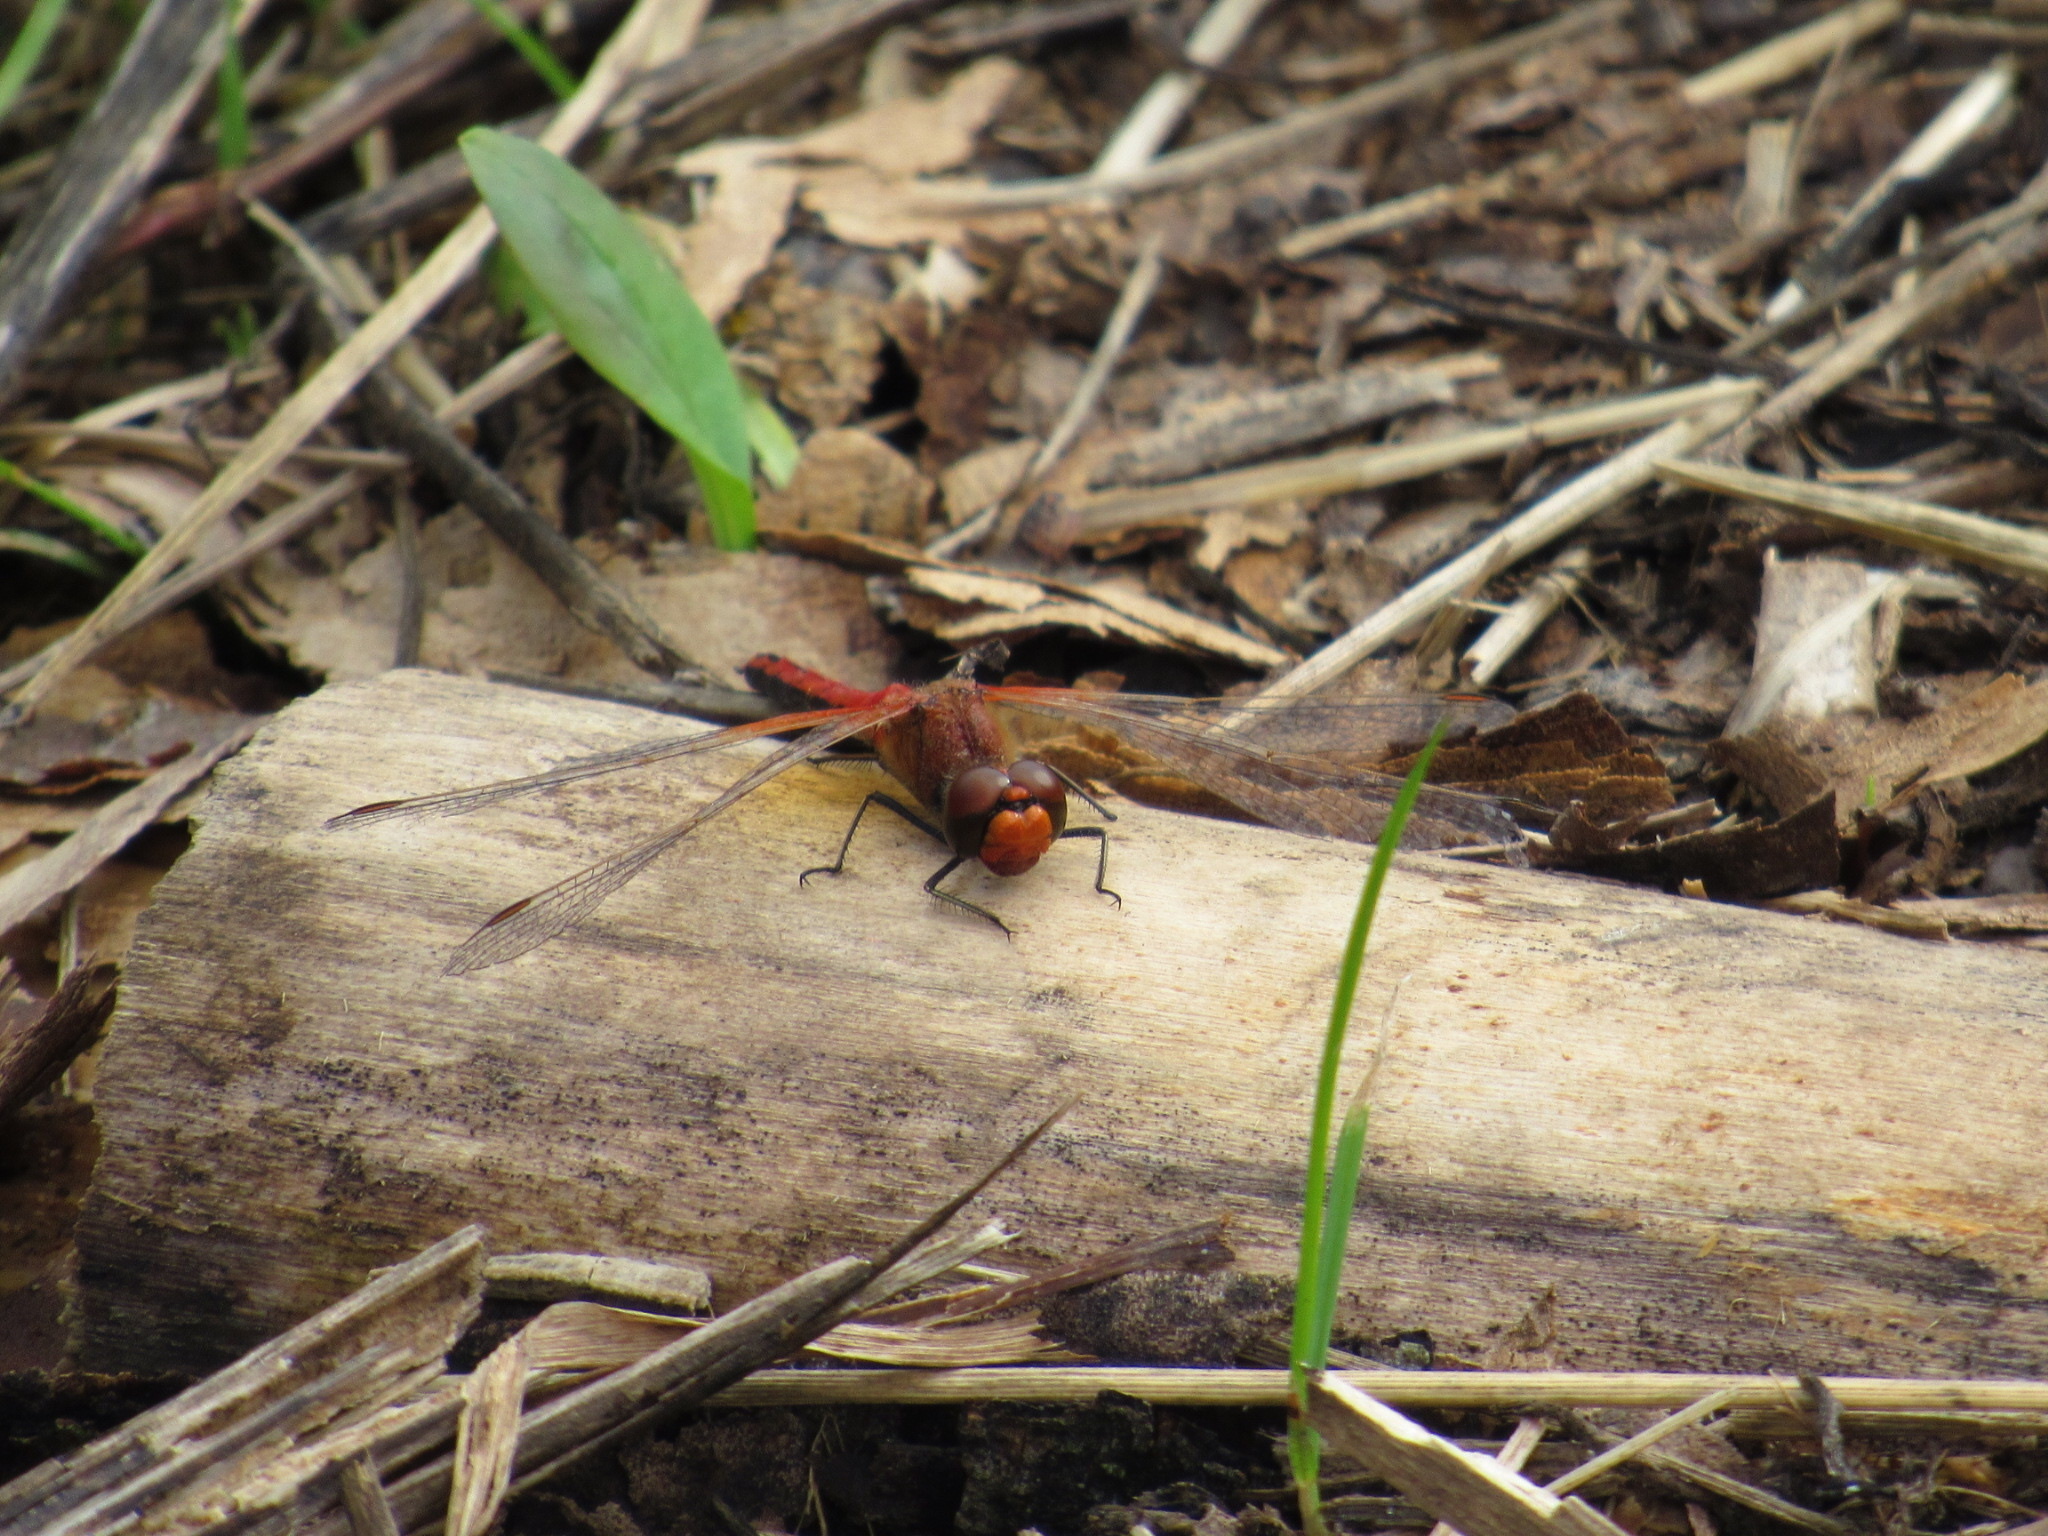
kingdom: Animalia
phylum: Arthropoda
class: Insecta
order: Odonata
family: Libellulidae
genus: Sympetrum
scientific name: Sympetrum flaveolum
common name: Yellow-winged darter
